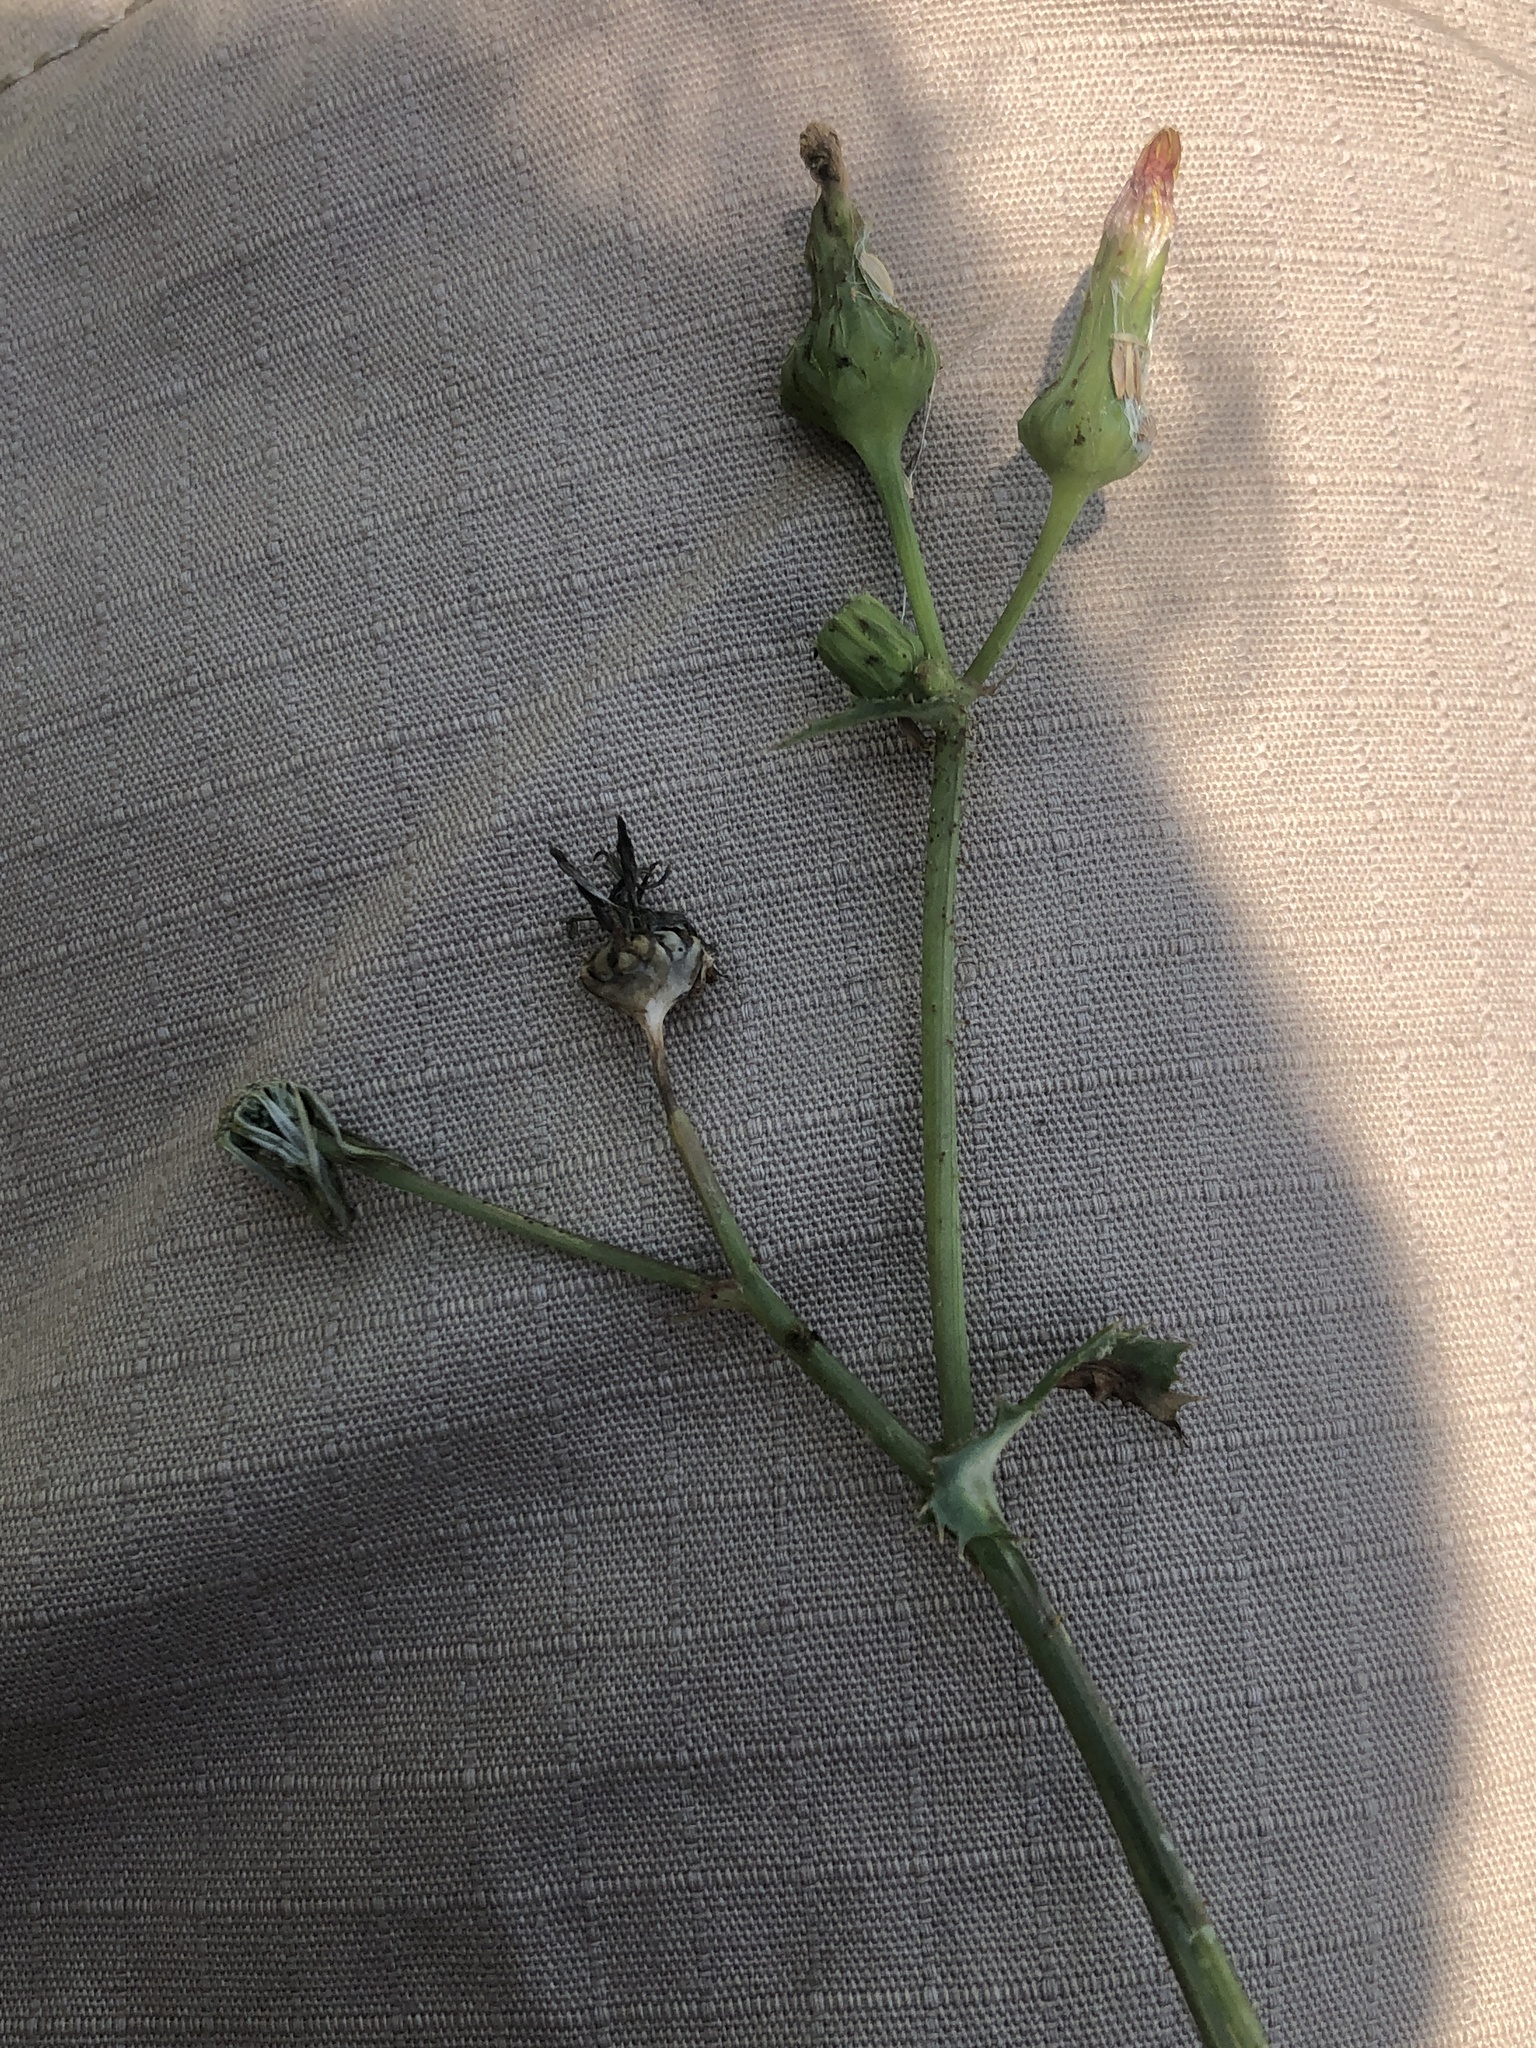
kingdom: Plantae
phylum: Tracheophyta
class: Magnoliopsida
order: Asterales
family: Asteraceae
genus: Sonchus
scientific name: Sonchus asper
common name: Prickly sow-thistle
